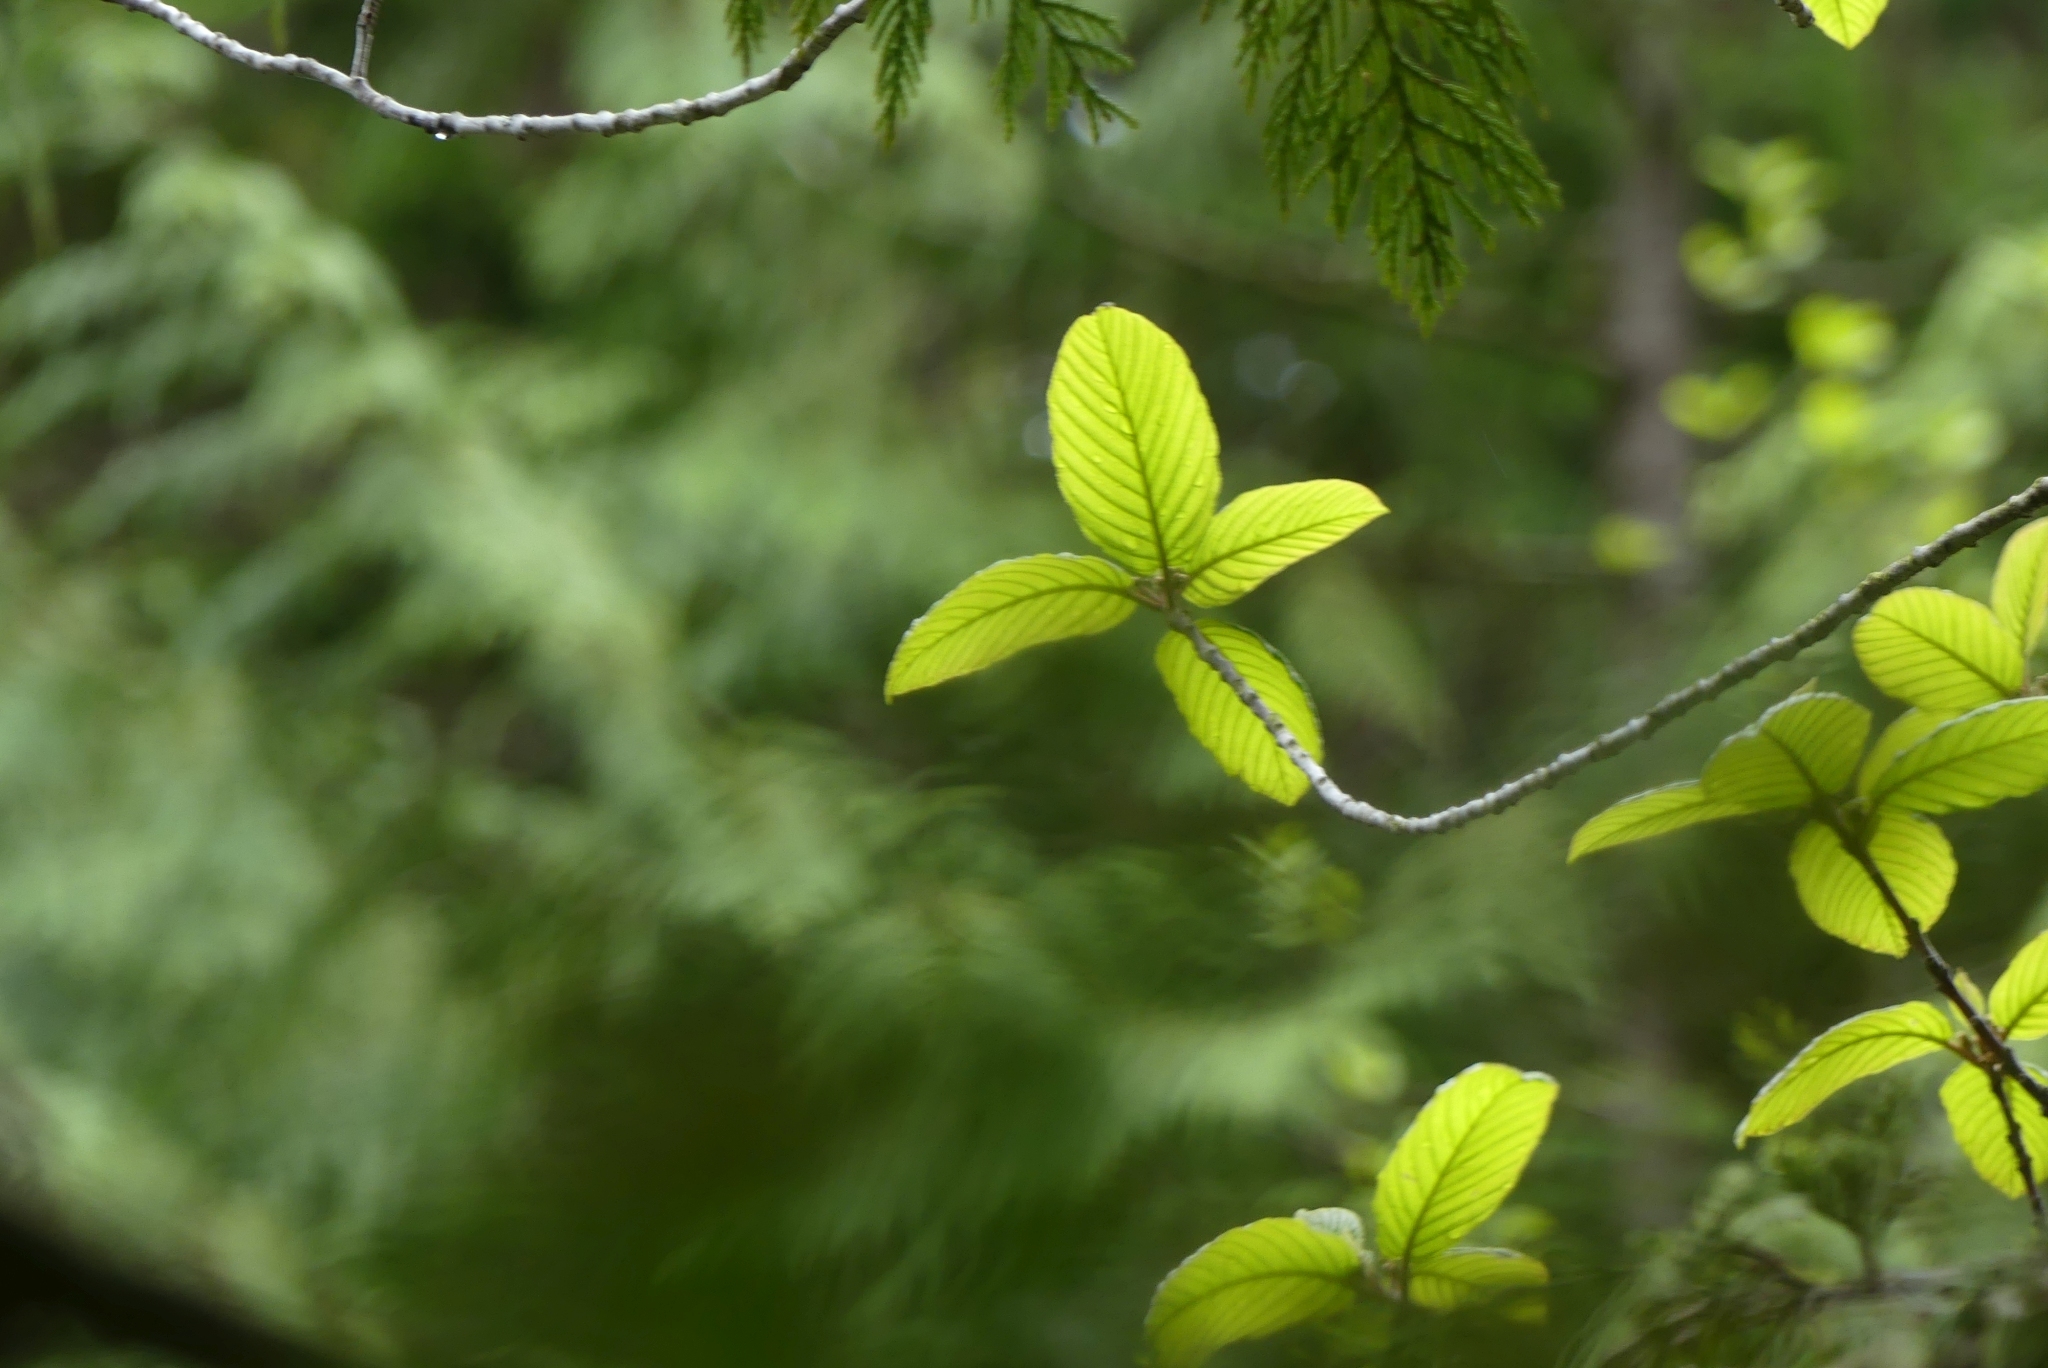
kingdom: Plantae
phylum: Tracheophyta
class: Magnoliopsida
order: Rosales
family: Rhamnaceae
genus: Frangula
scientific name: Frangula purshiana
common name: Cascara buckthorn
